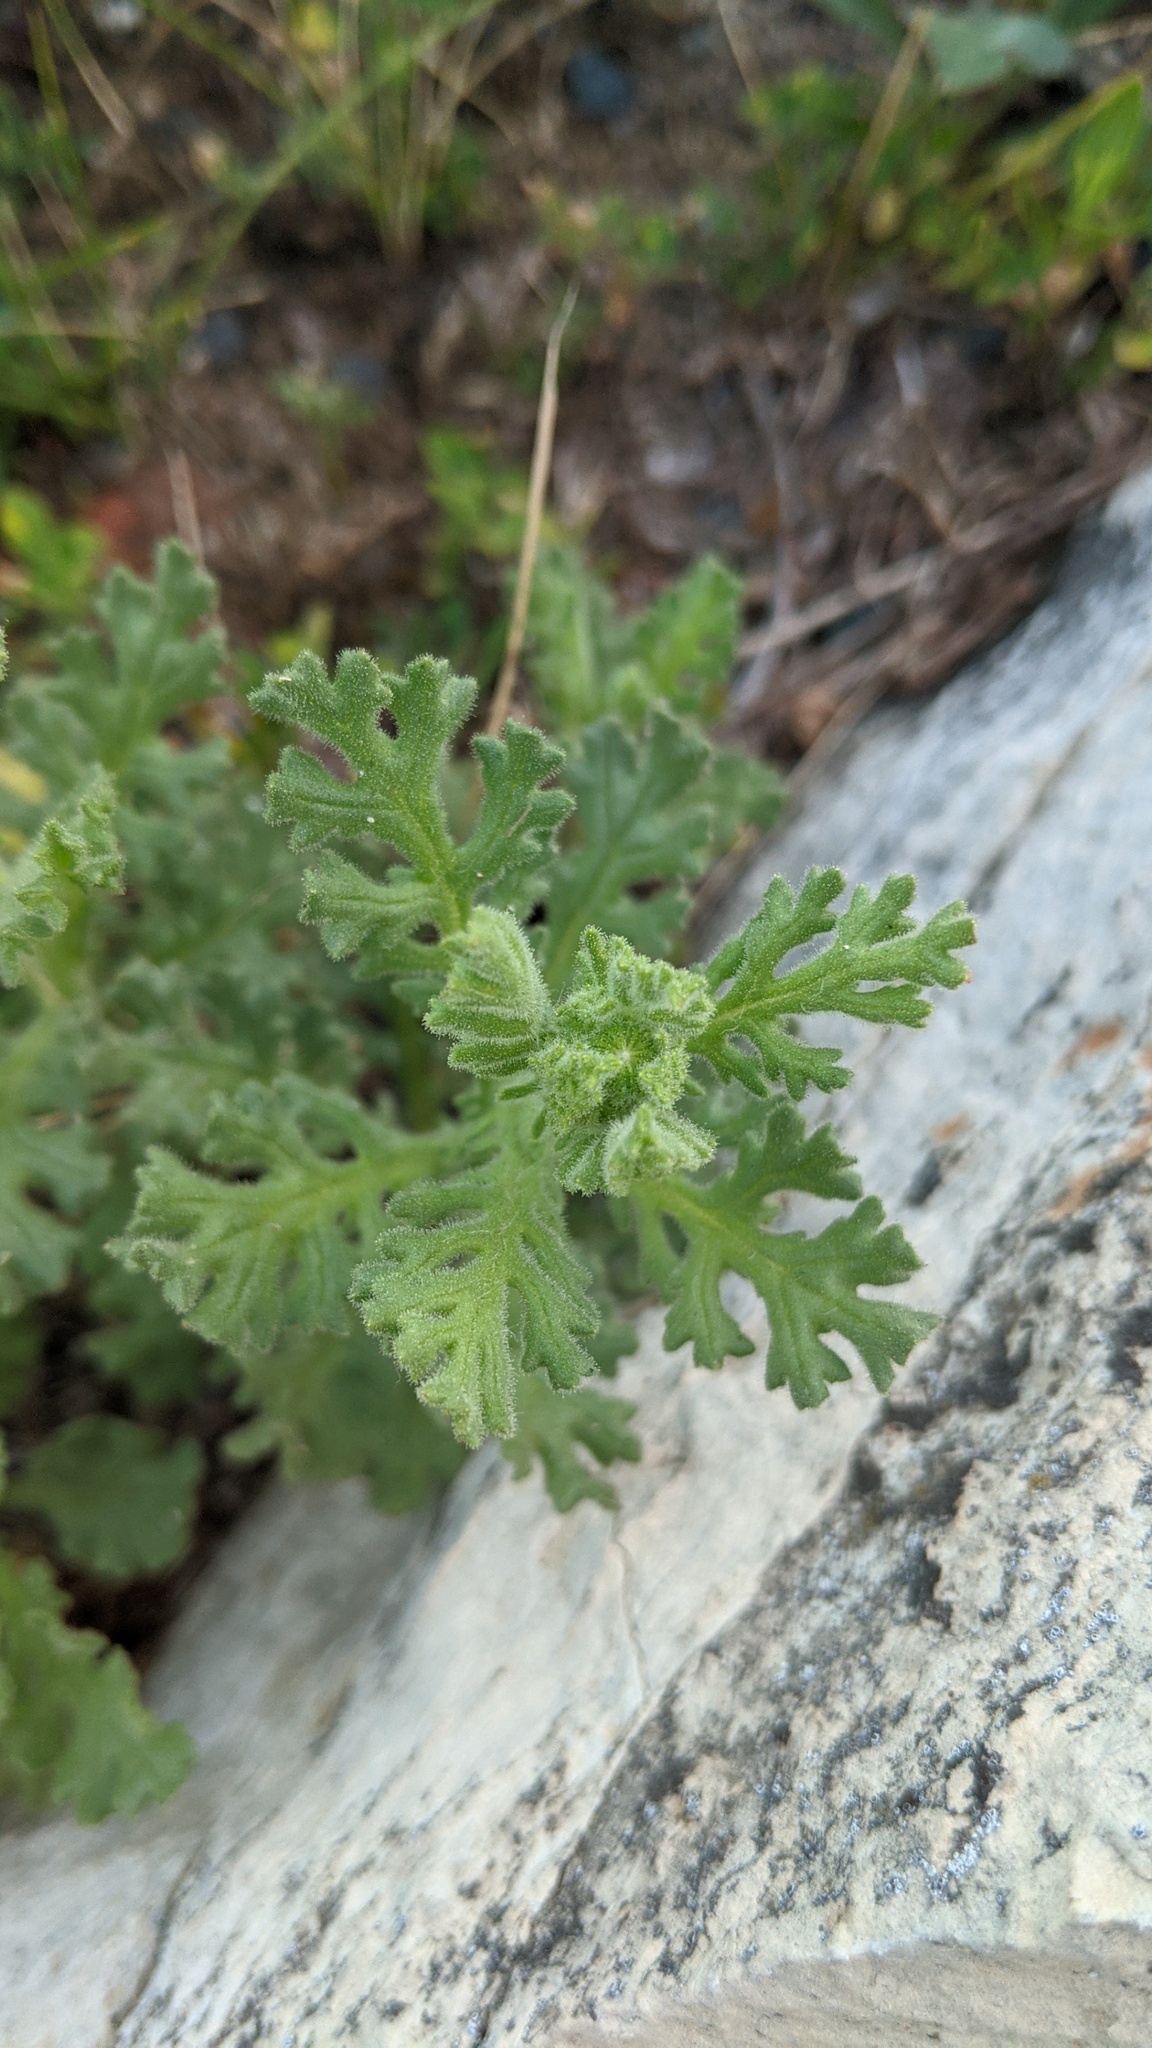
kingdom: Plantae
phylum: Tracheophyta
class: Magnoliopsida
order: Asterales
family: Asteraceae
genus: Senecio
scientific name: Senecio viscosus
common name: Sticky groundsel
